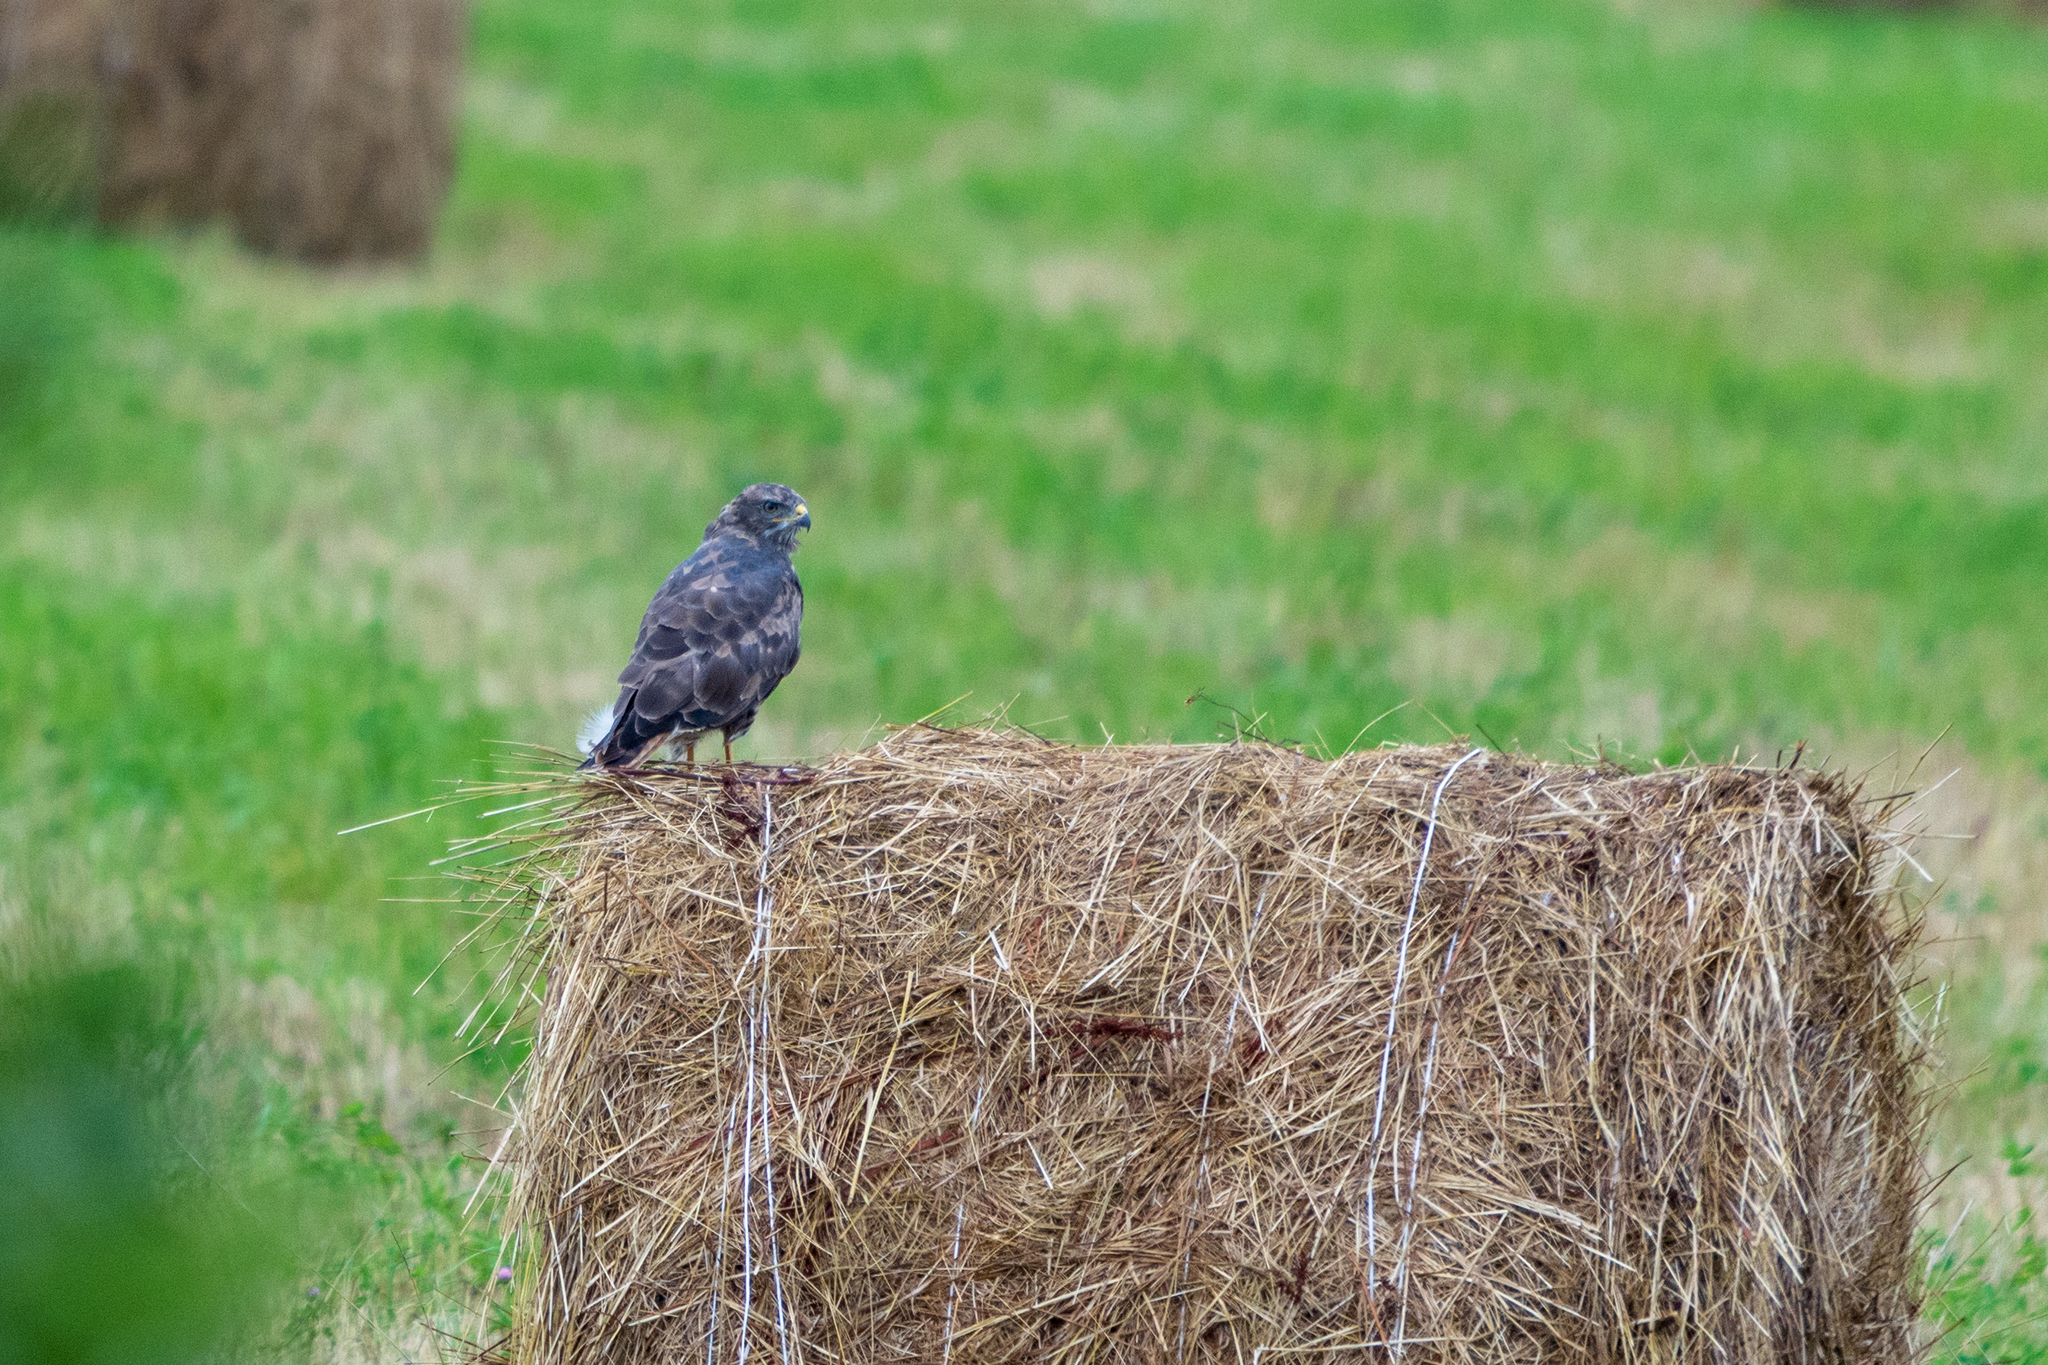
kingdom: Animalia
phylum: Chordata
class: Aves
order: Accipitriformes
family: Accipitridae
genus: Buteo
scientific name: Buteo buteo
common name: Common buzzard
